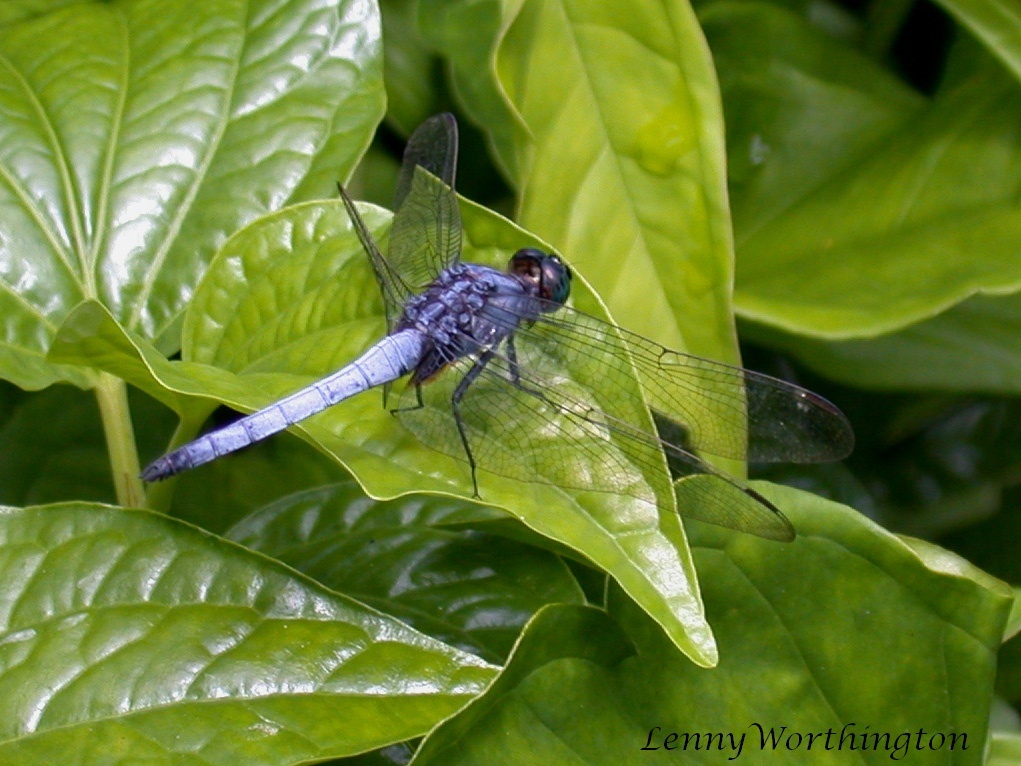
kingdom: Animalia
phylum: Arthropoda
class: Insecta
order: Odonata
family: Libellulidae
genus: Orthetrum
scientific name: Orthetrum glaucum
